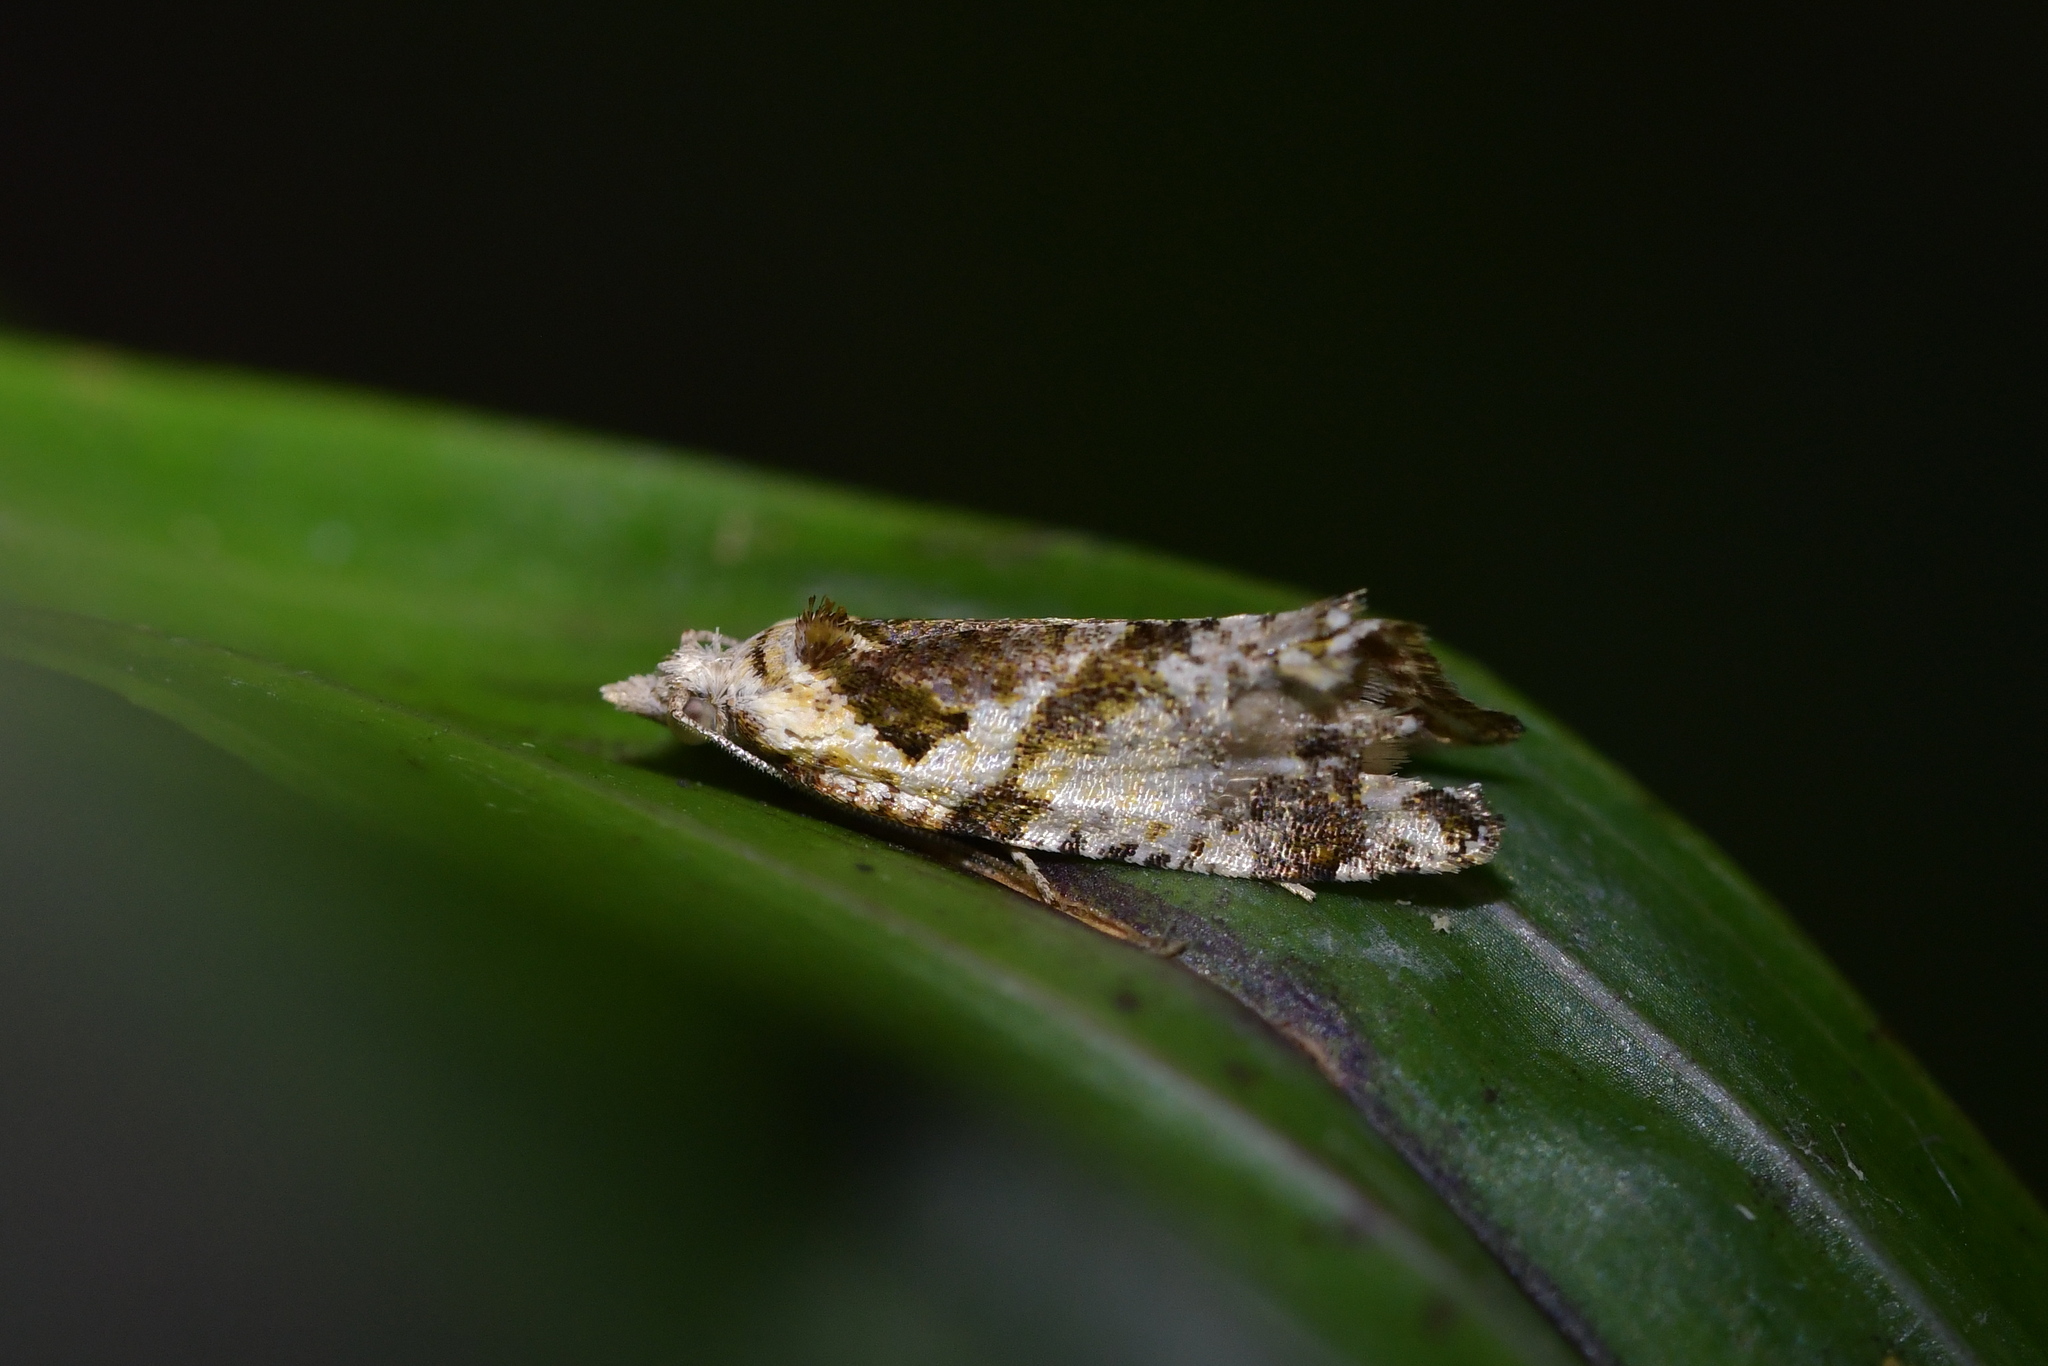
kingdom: Animalia
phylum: Arthropoda
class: Insecta
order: Lepidoptera
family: Tortricidae
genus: Pyrgotis
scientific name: Pyrgotis plagiatana
